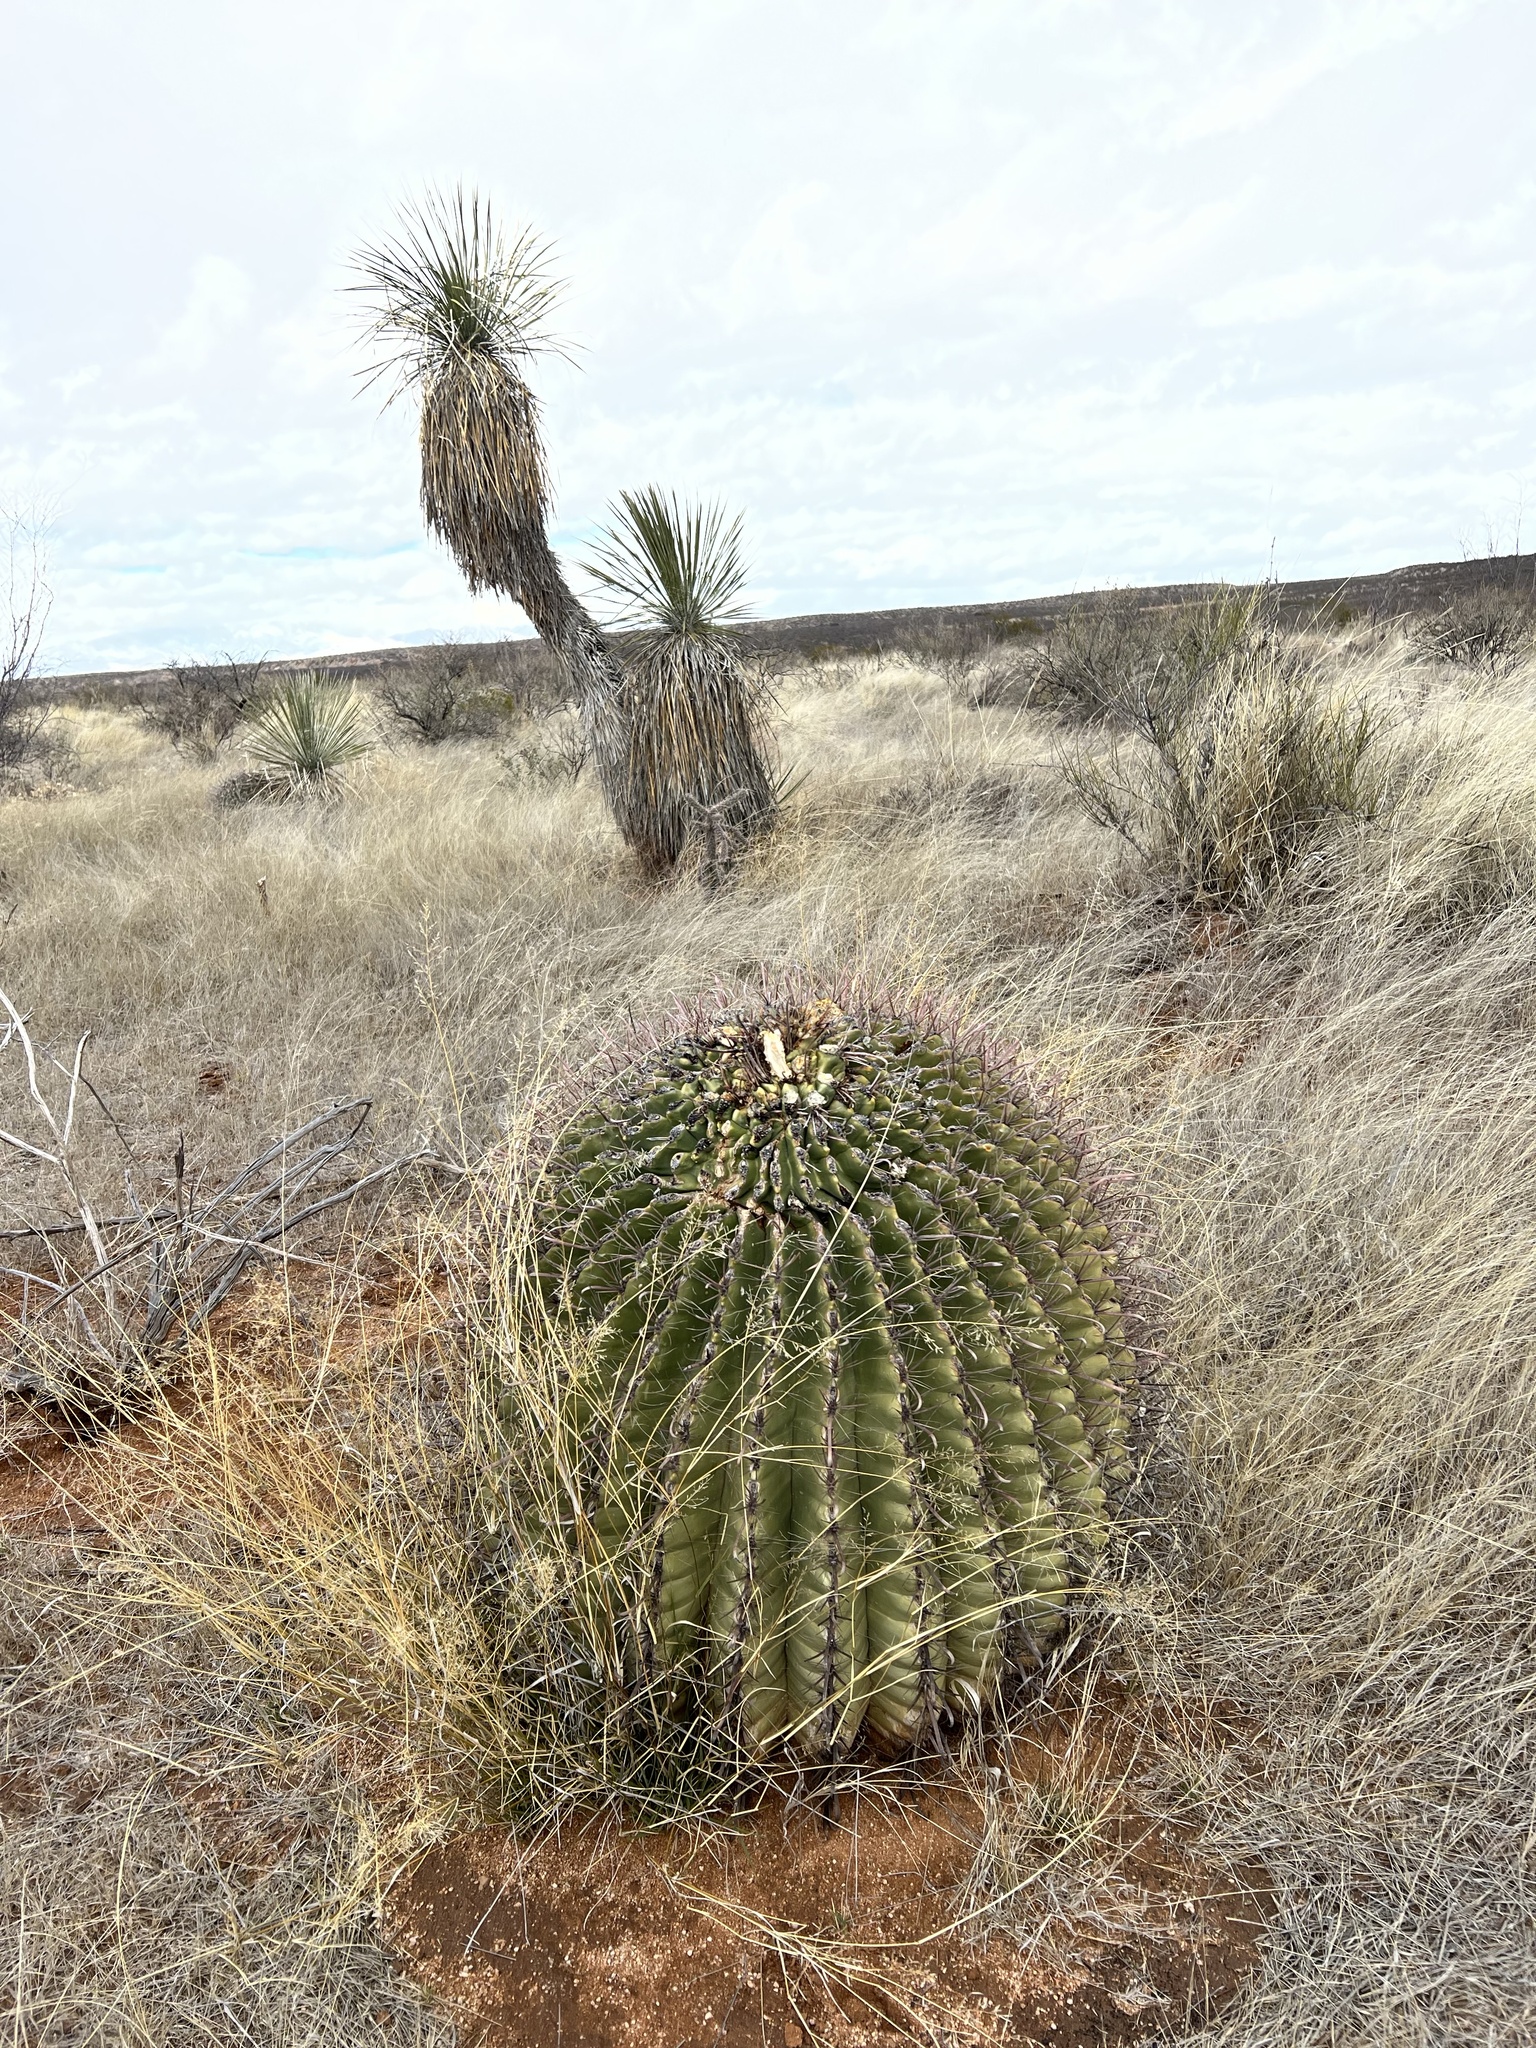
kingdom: Plantae
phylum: Tracheophyta
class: Magnoliopsida
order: Caryophyllales
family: Cactaceae
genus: Ferocactus
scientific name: Ferocactus wislizeni
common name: Candy barrel cactus
